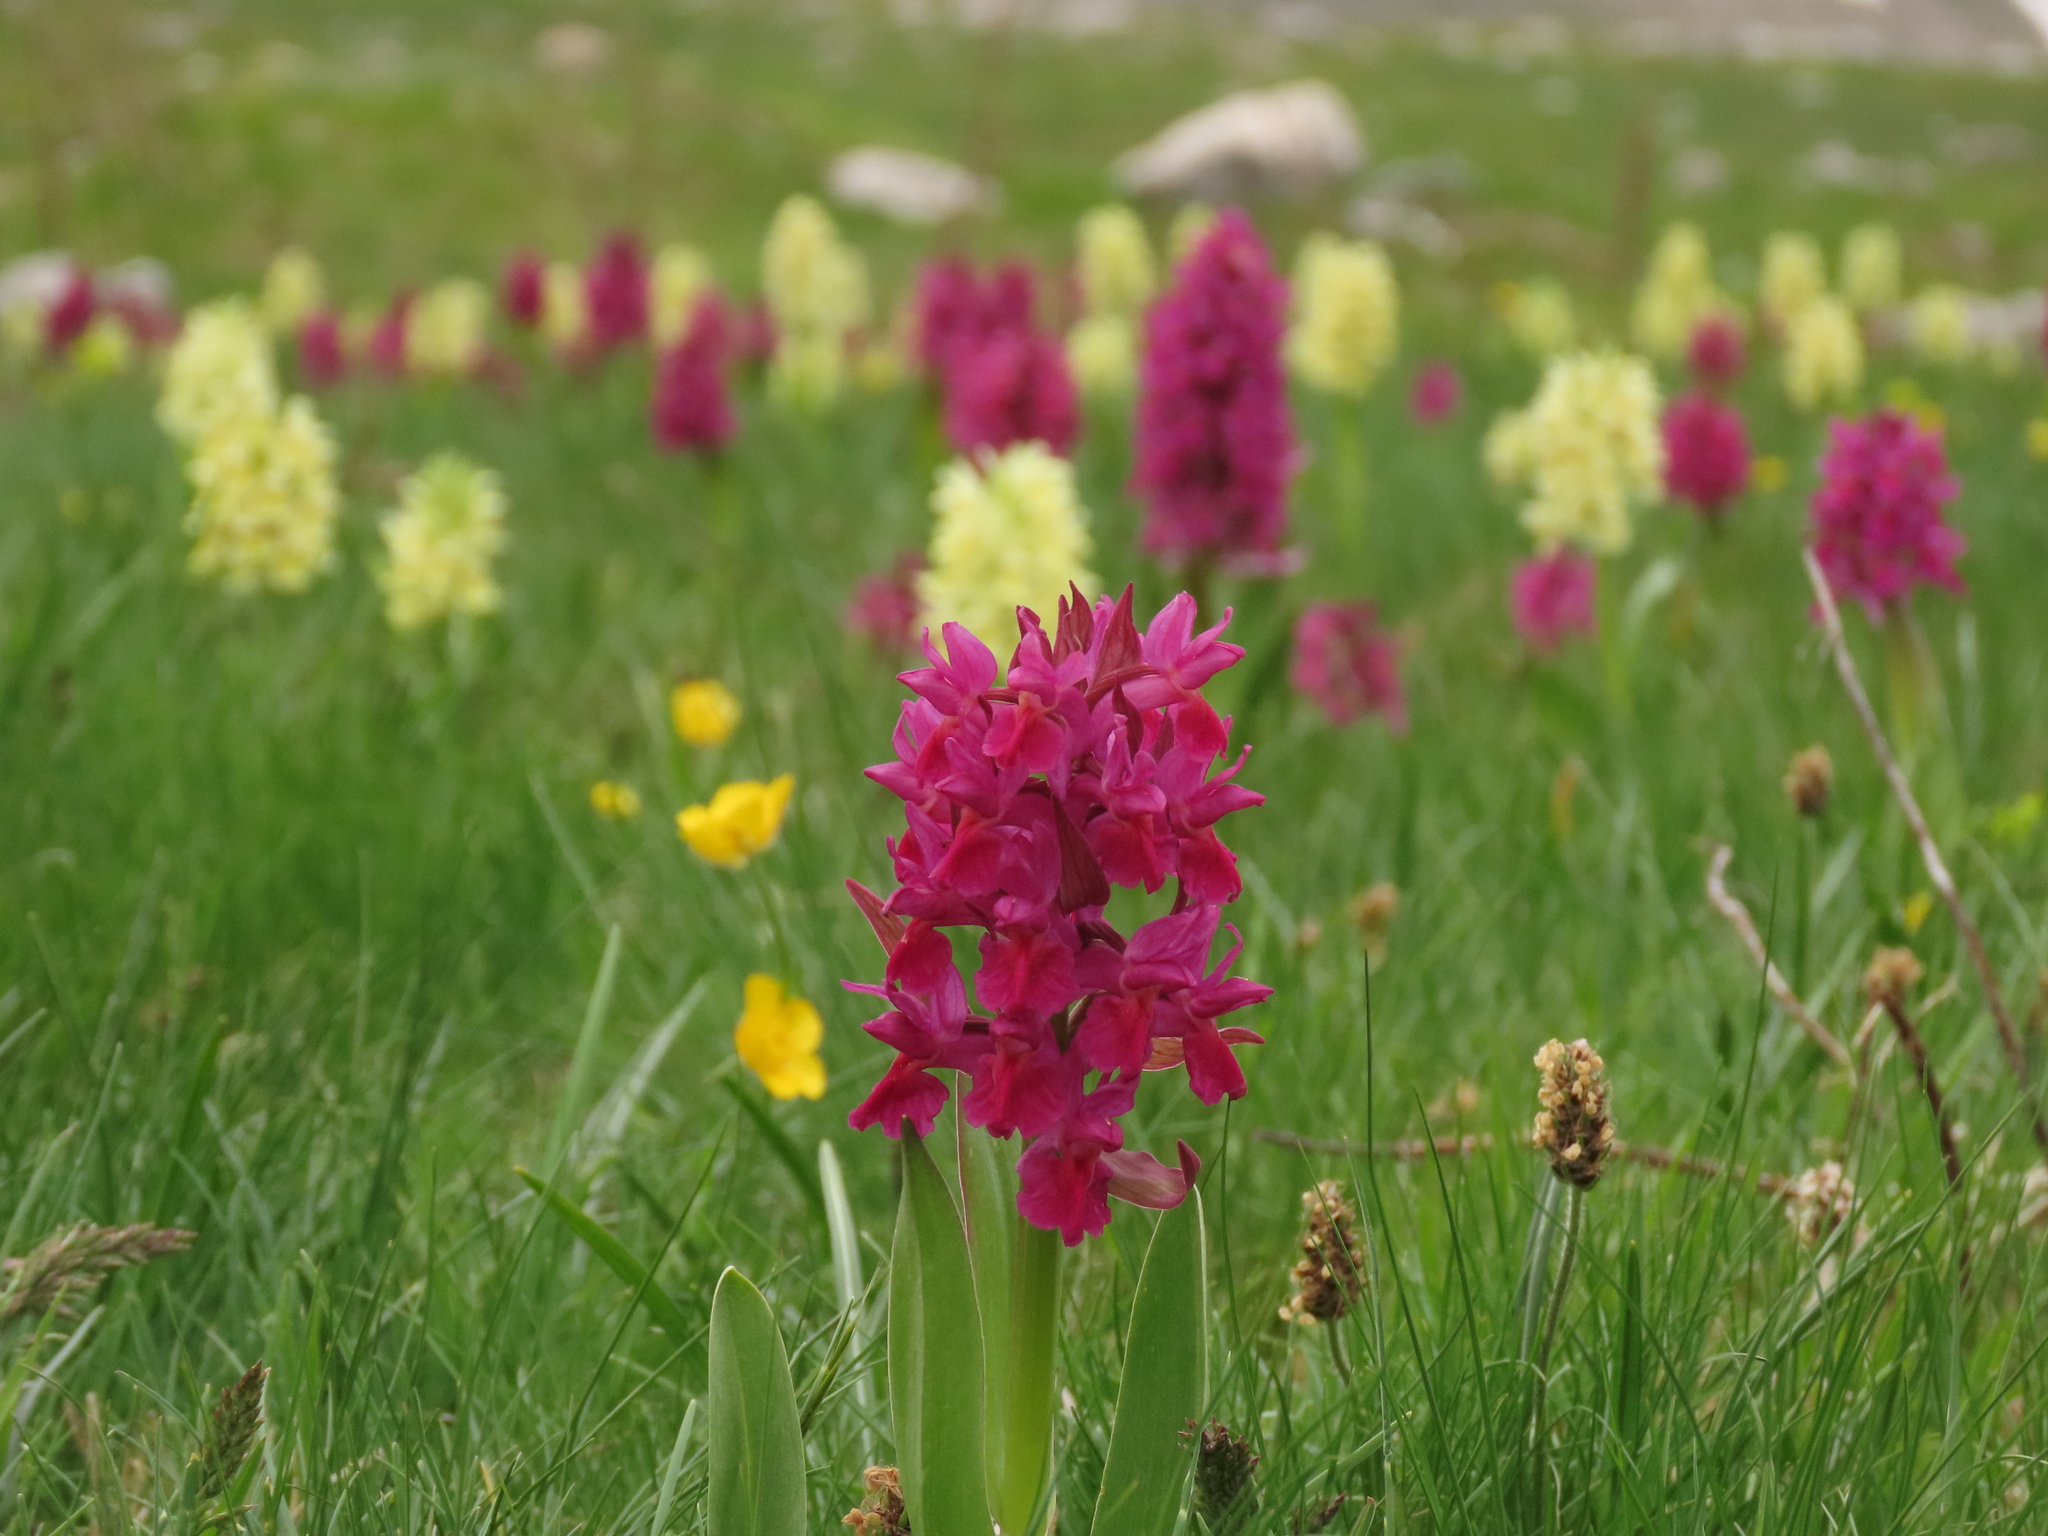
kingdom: Plantae
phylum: Tracheophyta
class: Liliopsida
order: Asparagales
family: Orchidaceae
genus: Dactylorhiza
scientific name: Dactylorhiza sambucina
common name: Elder-flowered orchid
